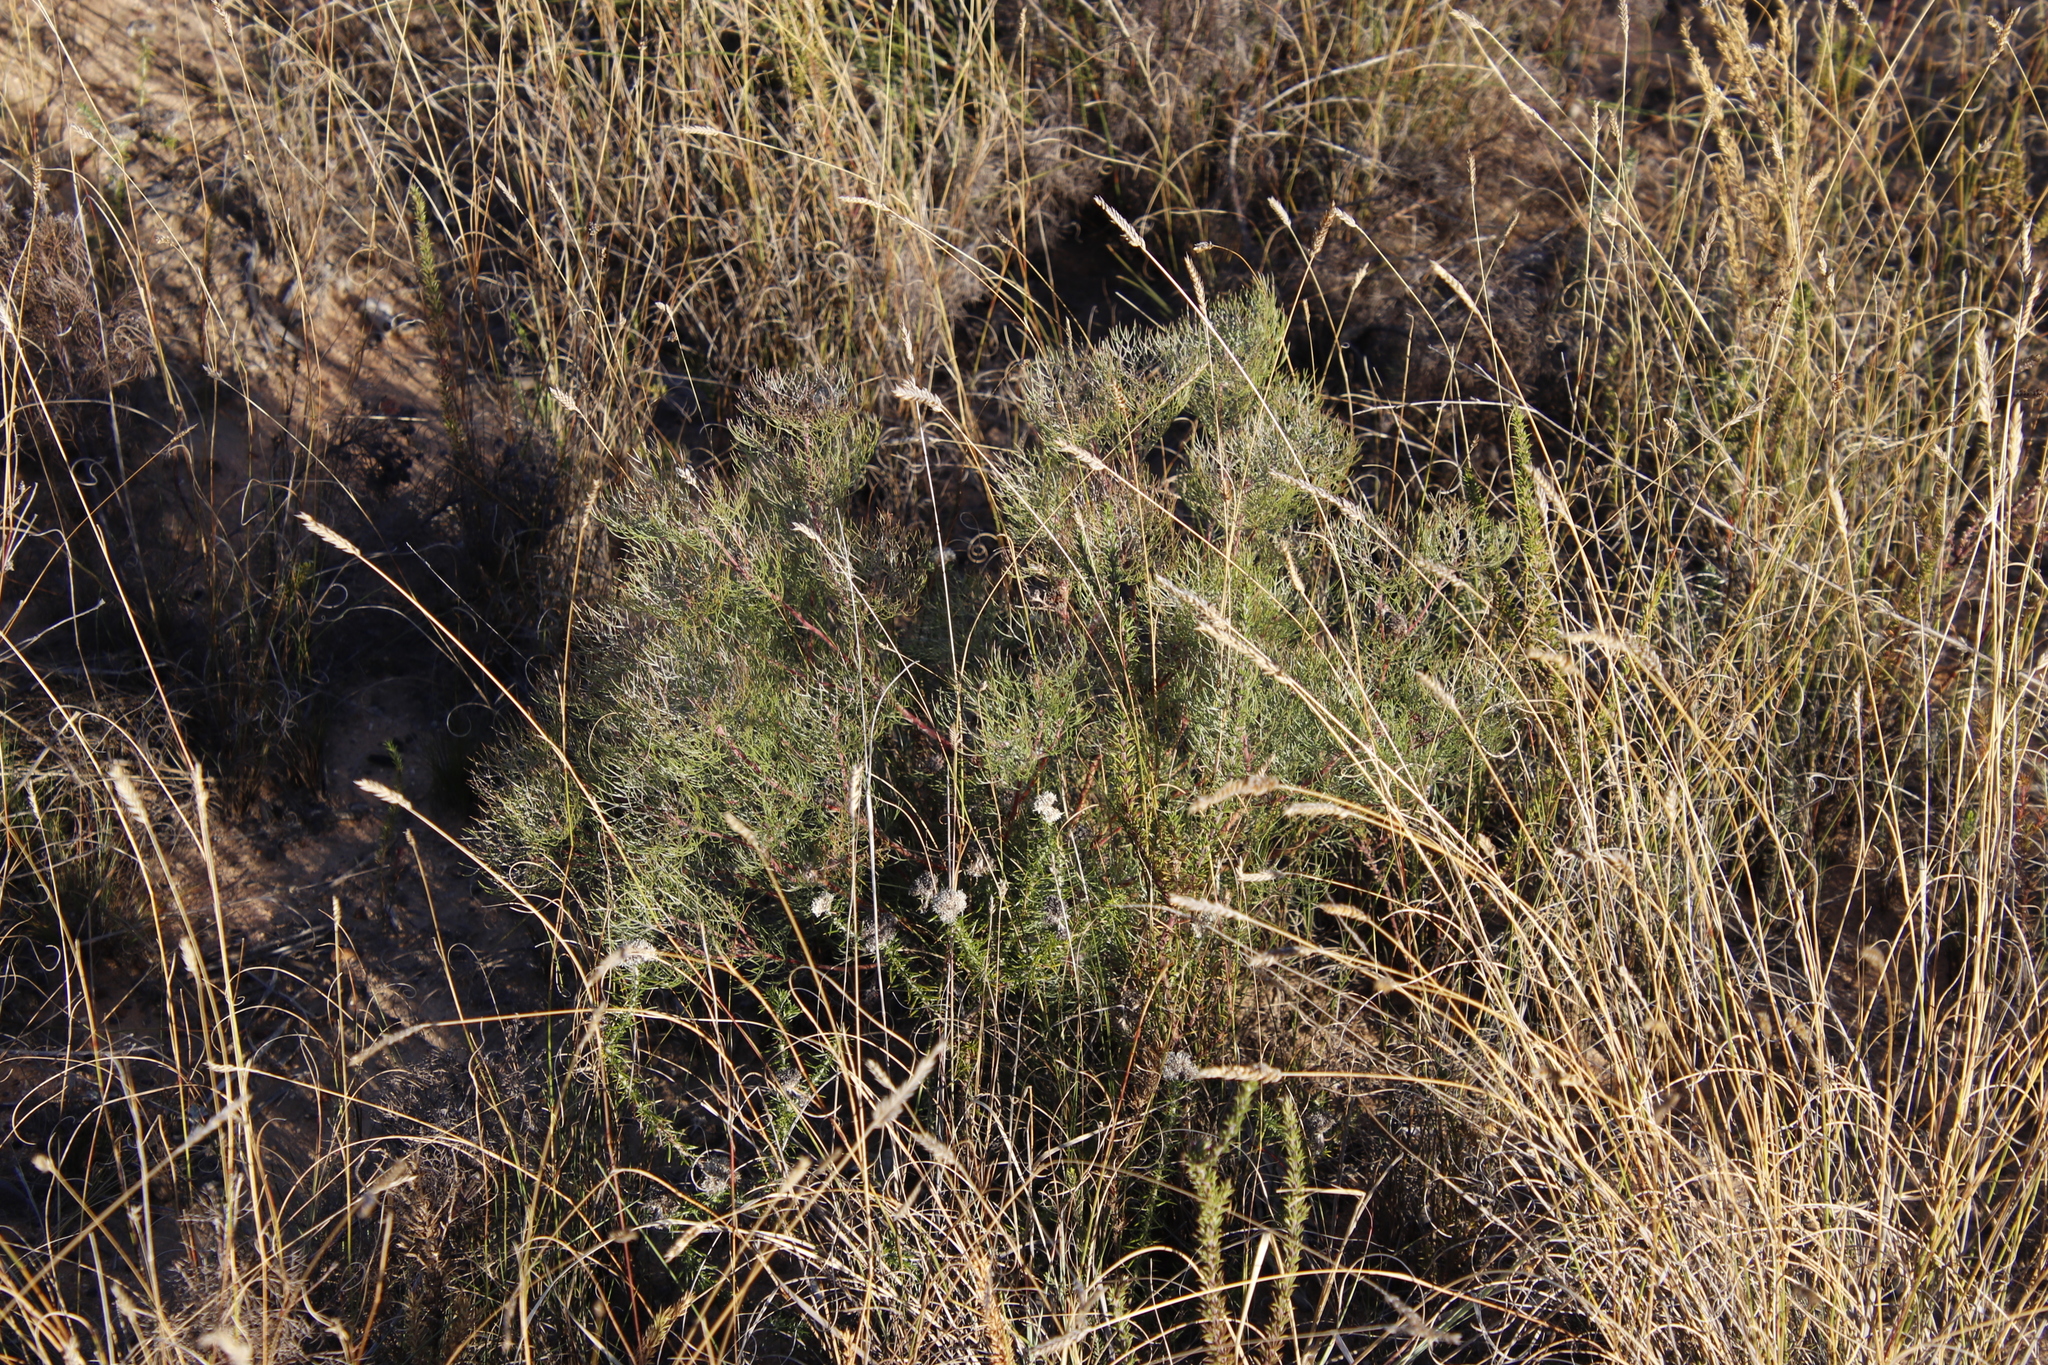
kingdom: Plantae
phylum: Tracheophyta
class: Magnoliopsida
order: Proteales
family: Proteaceae
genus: Serruria
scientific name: Serruria fasciflora
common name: Common pin spiderhead
